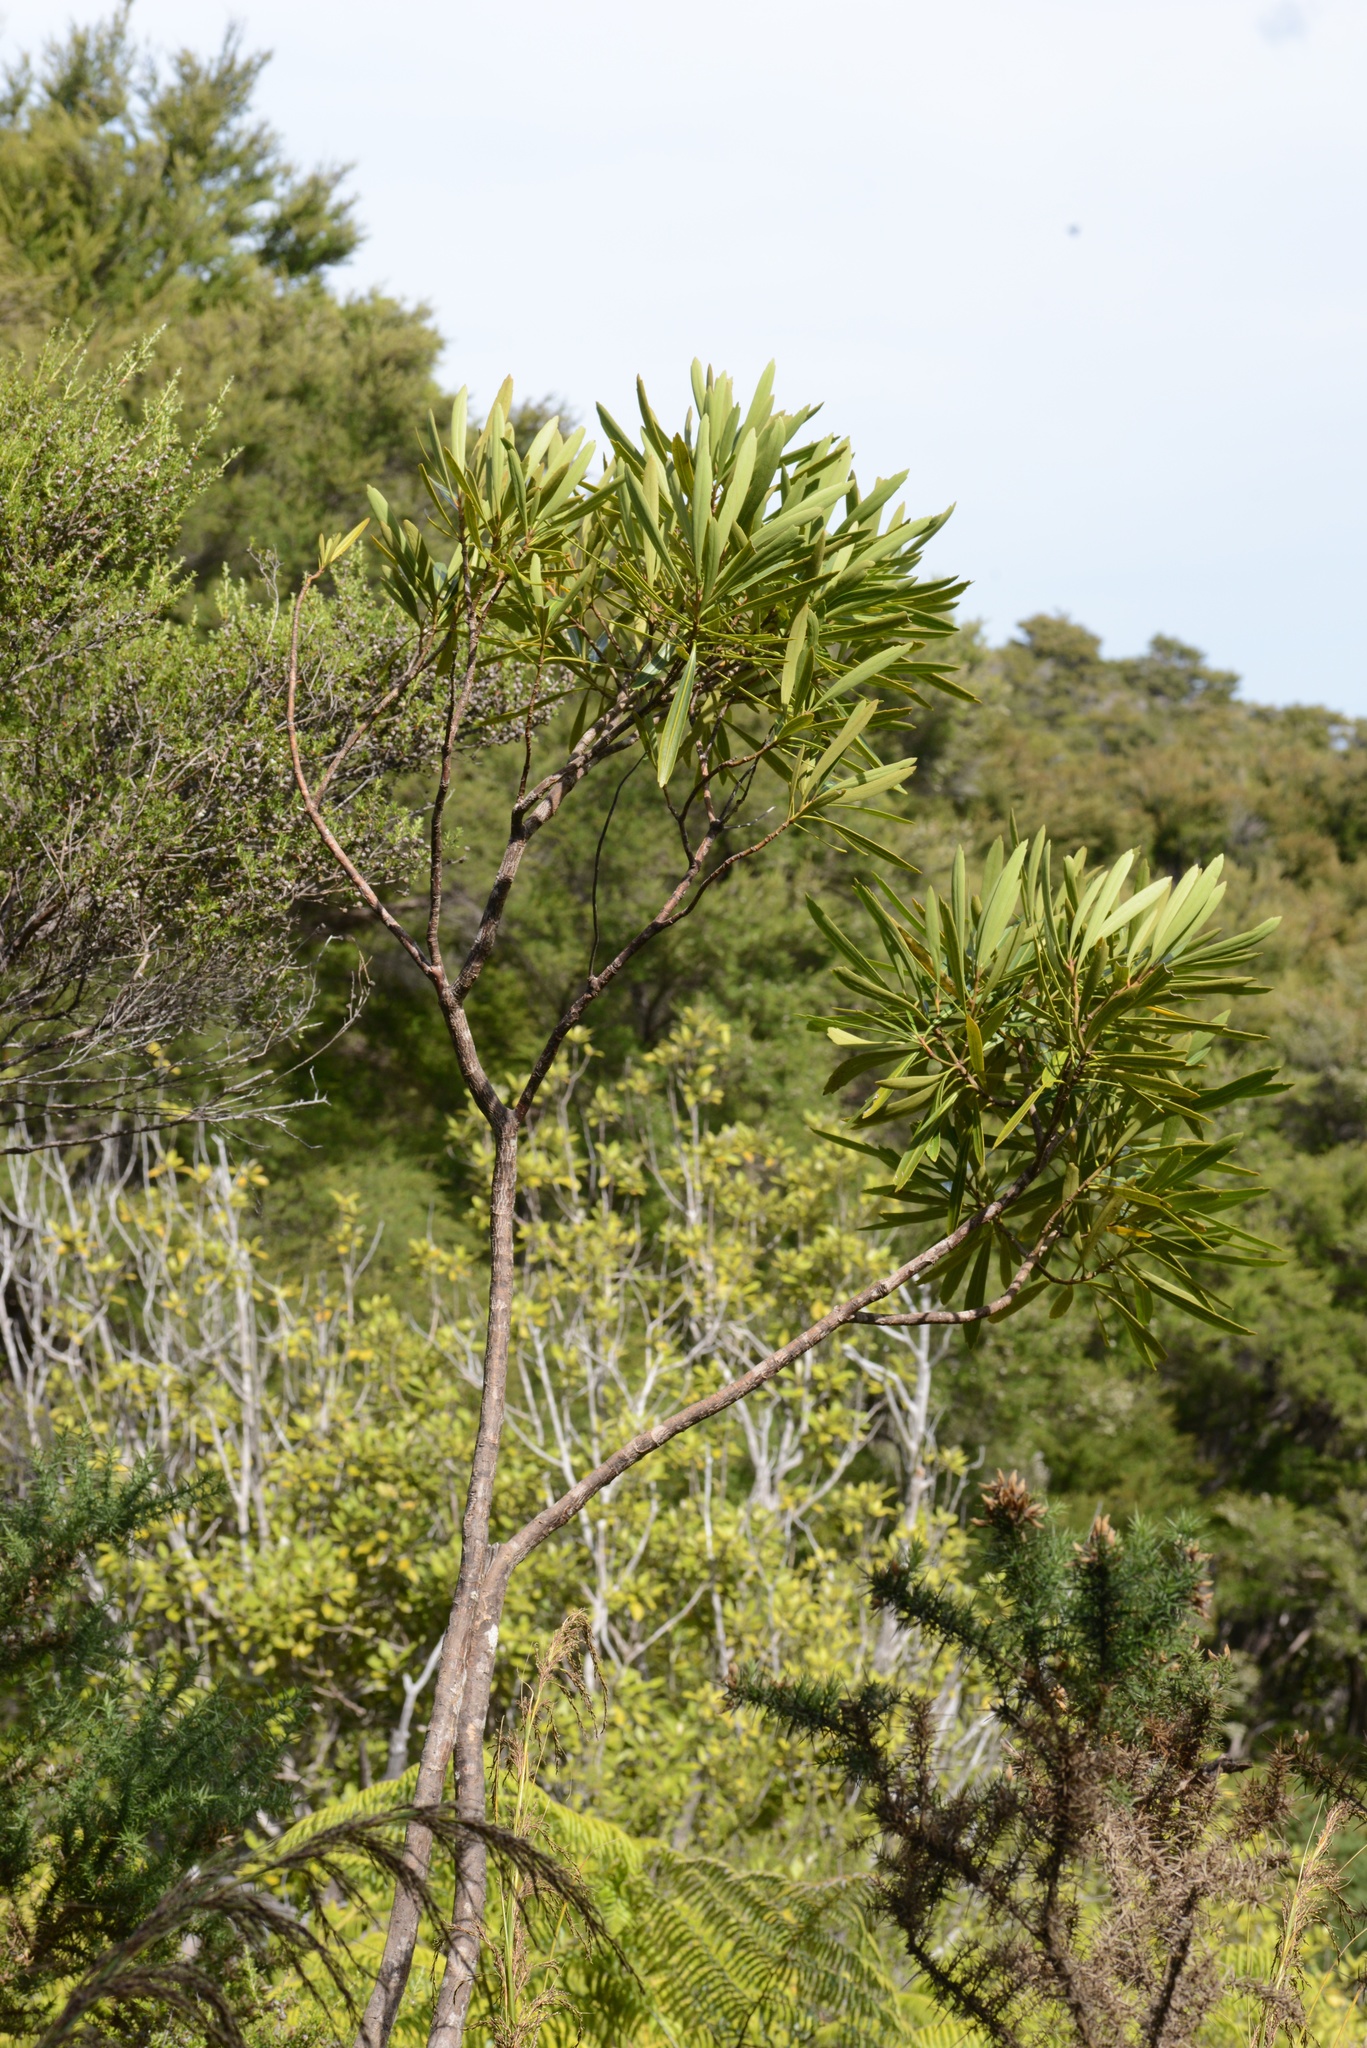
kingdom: Plantae
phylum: Tracheophyta
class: Magnoliopsida
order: Apiales
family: Araliaceae
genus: Pseudopanax
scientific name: Pseudopanax crassifolius
